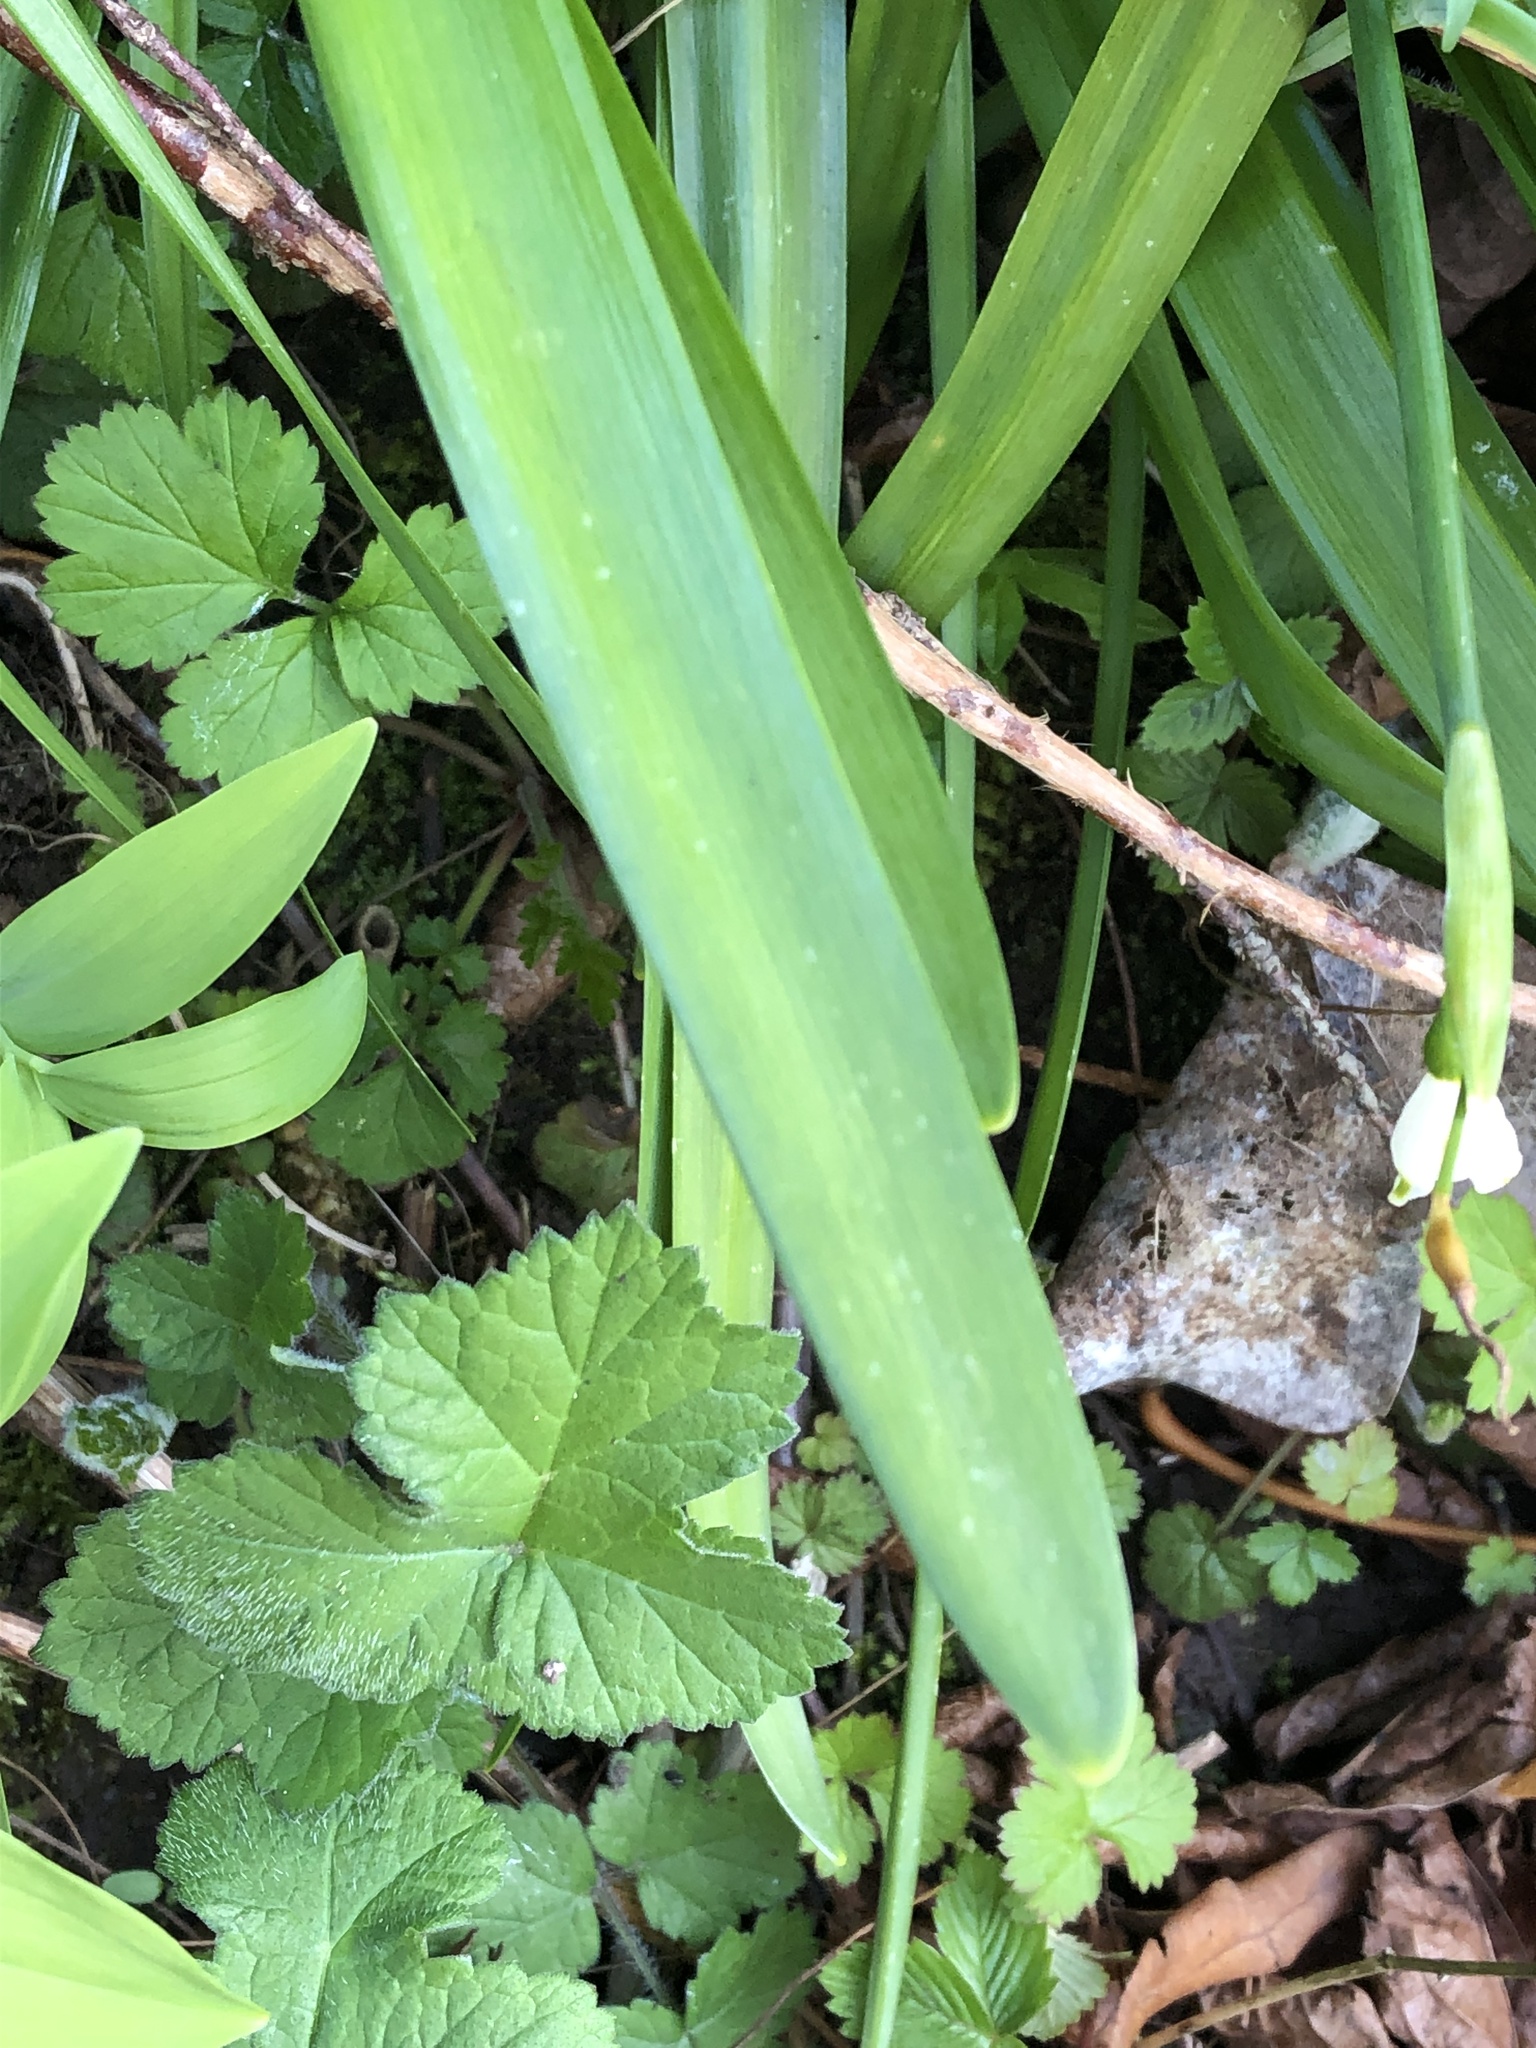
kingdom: Plantae
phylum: Tracheophyta
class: Liliopsida
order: Asparagales
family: Amaryllidaceae
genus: Leucojum
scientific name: Leucojum aestivum
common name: Summer snowflake
